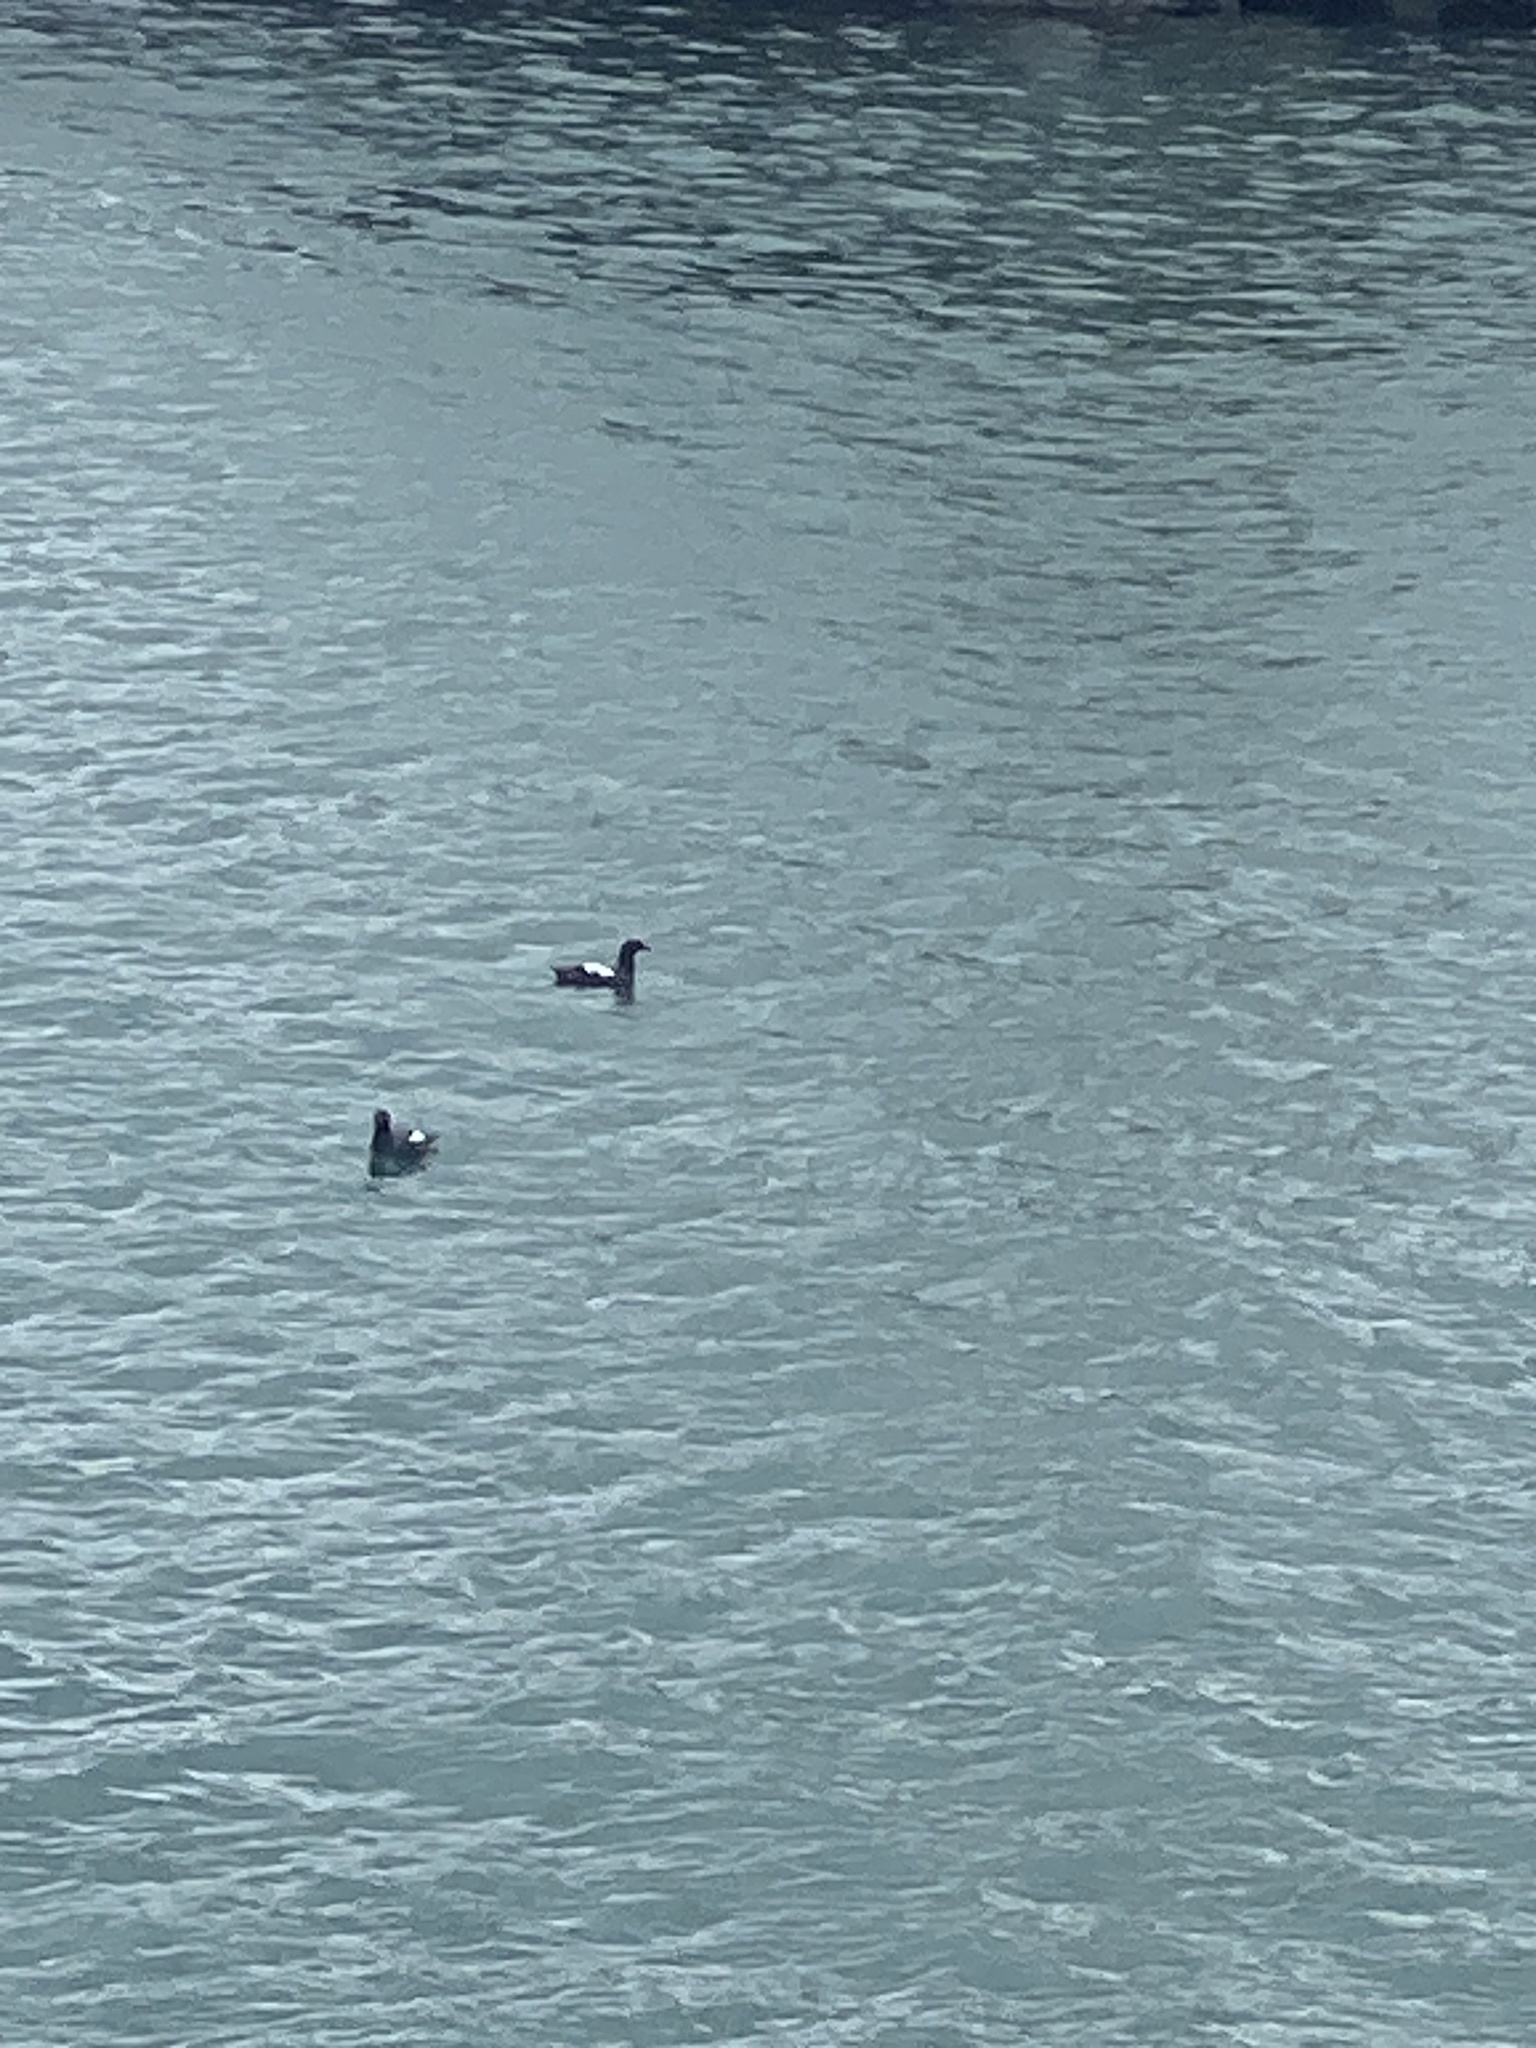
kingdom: Animalia
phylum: Chordata
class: Aves
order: Charadriiformes
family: Alcidae
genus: Cepphus
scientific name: Cepphus columba
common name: Pigeon guillemot
